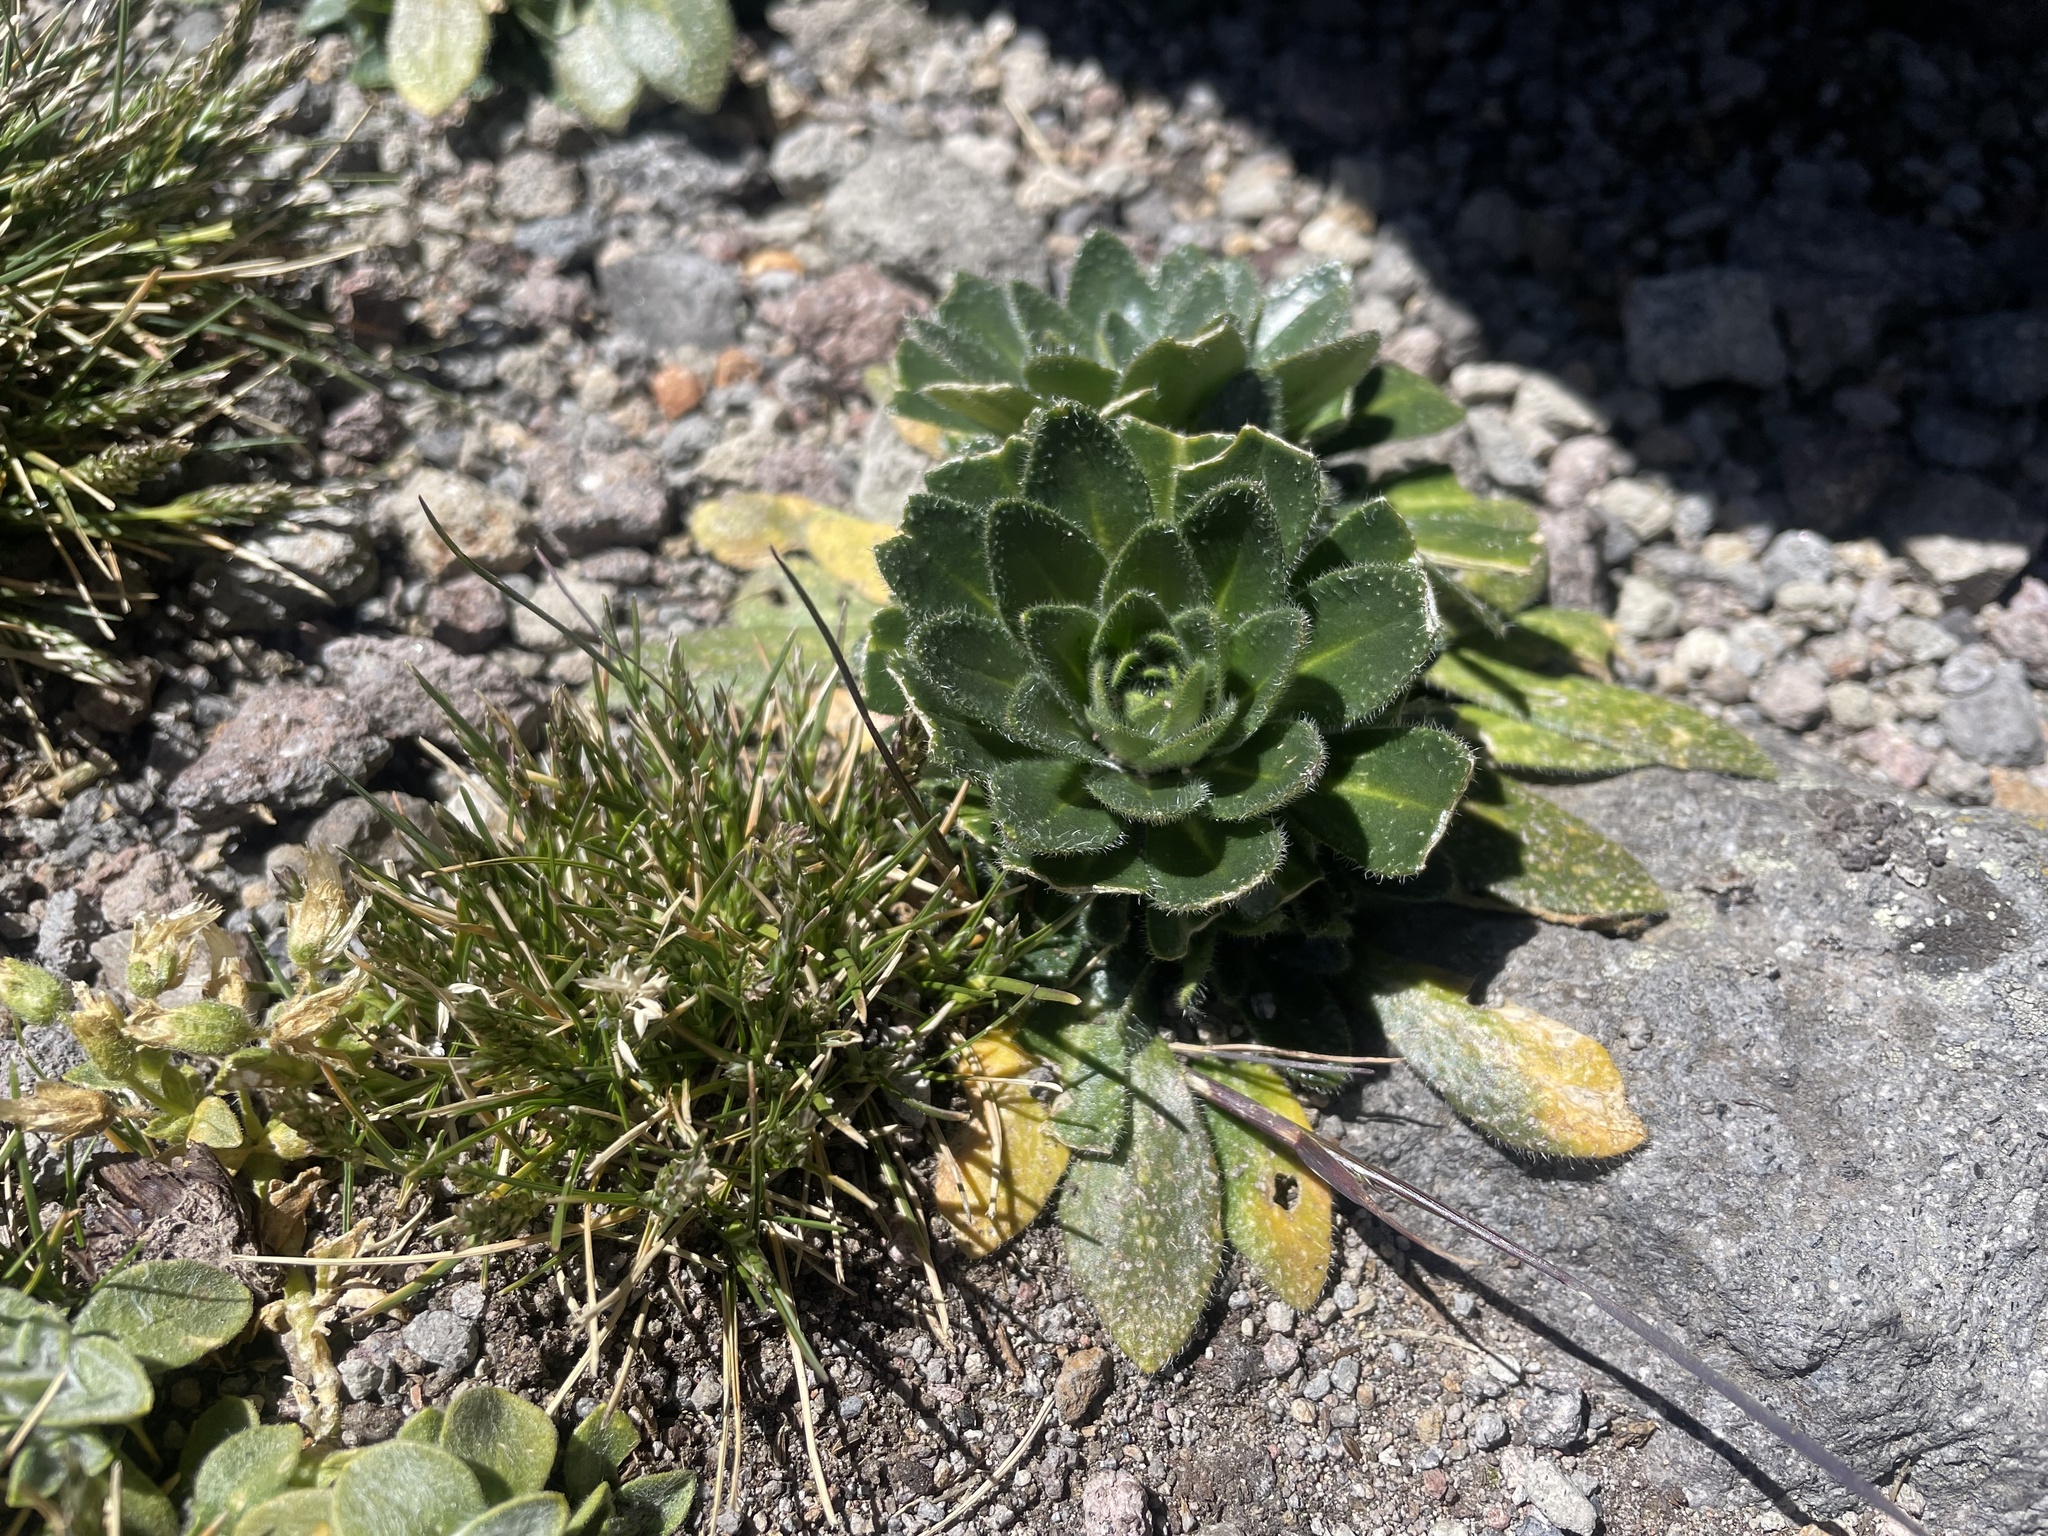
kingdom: Plantae
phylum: Tracheophyta
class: Magnoliopsida
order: Brassicales
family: Brassicaceae
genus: Draba
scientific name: Draba jorullensis
